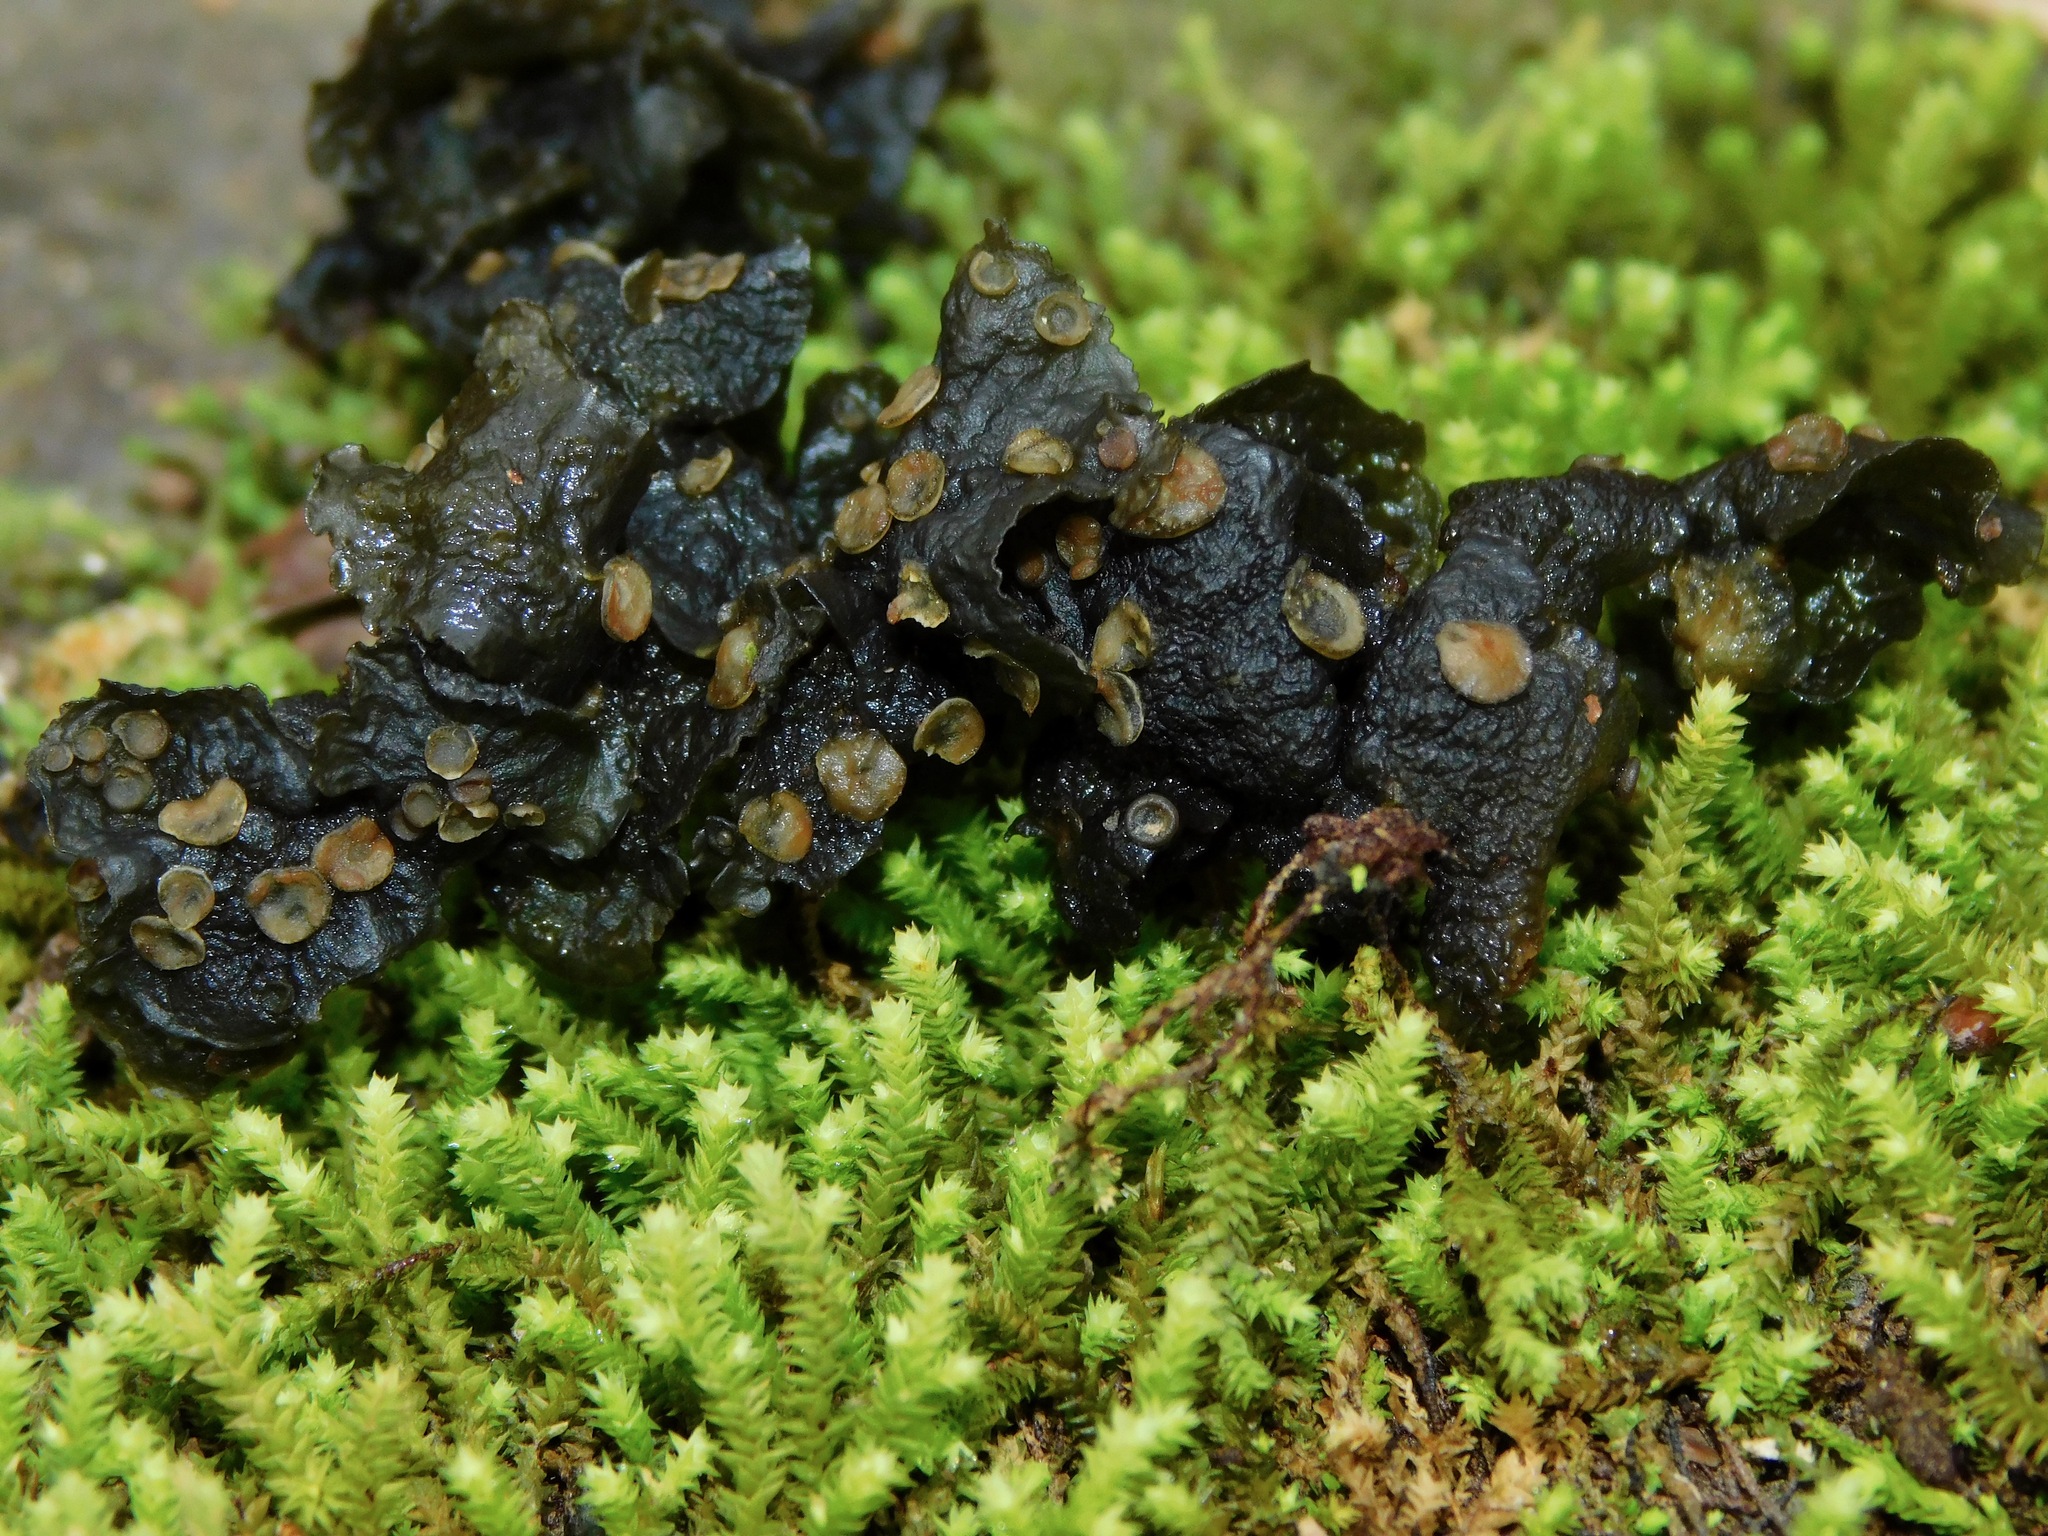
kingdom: Fungi
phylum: Ascomycota
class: Lecanoromycetes
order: Peltigerales
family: Collemataceae
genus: Leptogium
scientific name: Leptogium corticola
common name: Blistered jellyskin lichen
